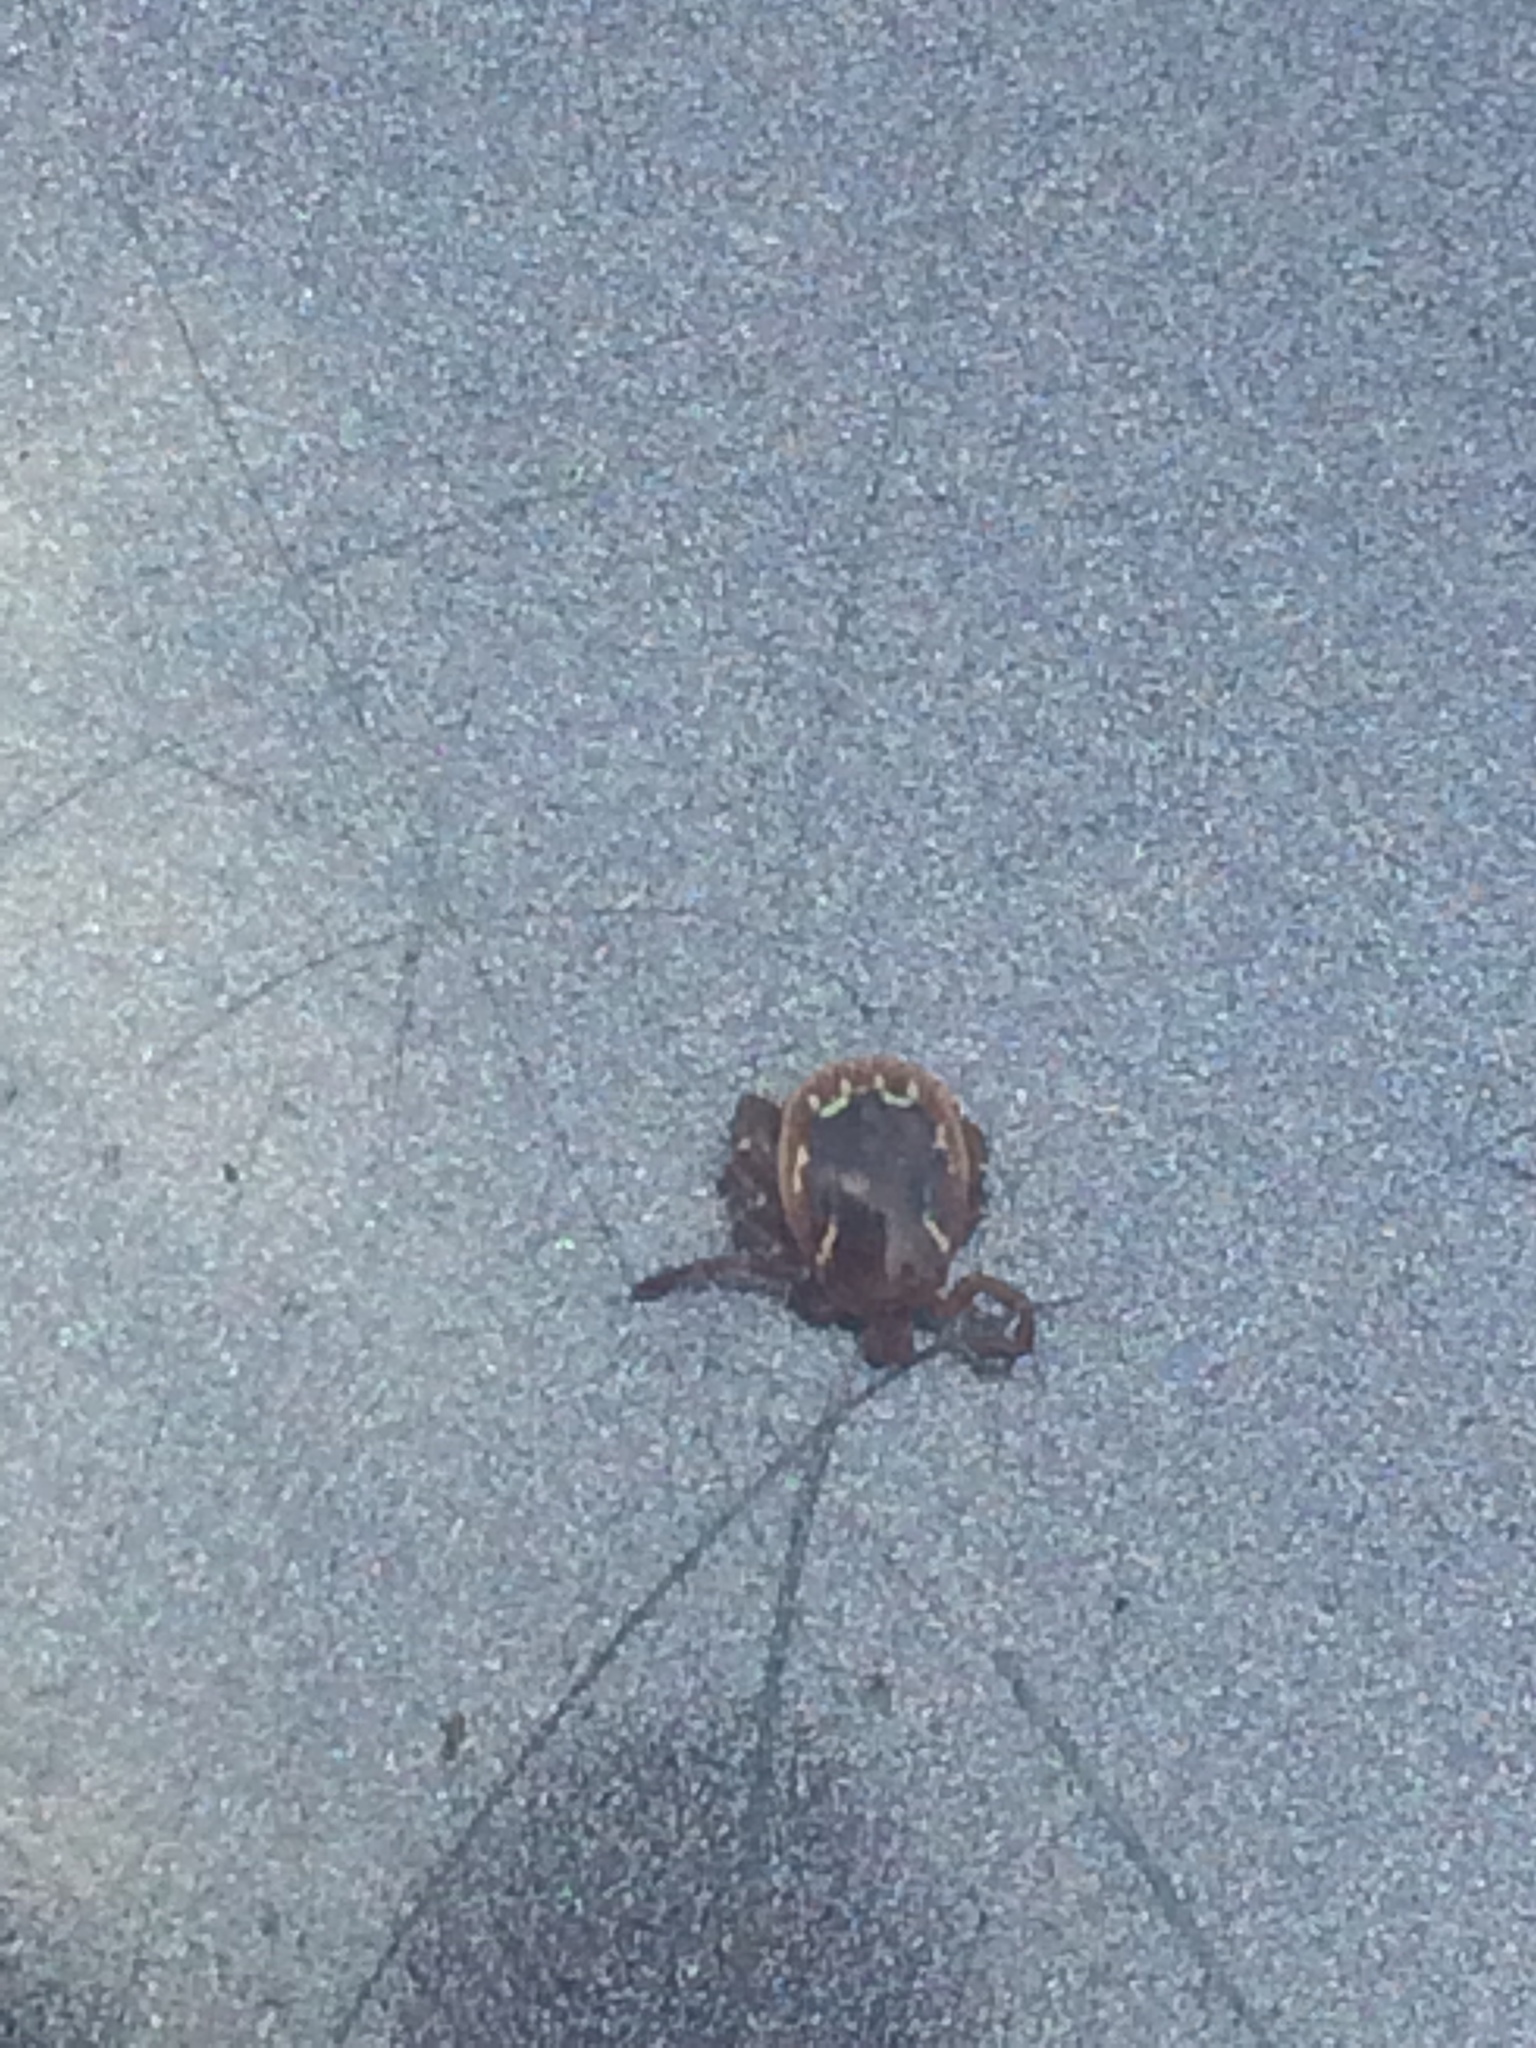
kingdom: Animalia
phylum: Arthropoda
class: Arachnida
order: Ixodida
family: Ixodidae
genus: Amblyomma
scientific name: Amblyomma americanum
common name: Lone star tick
